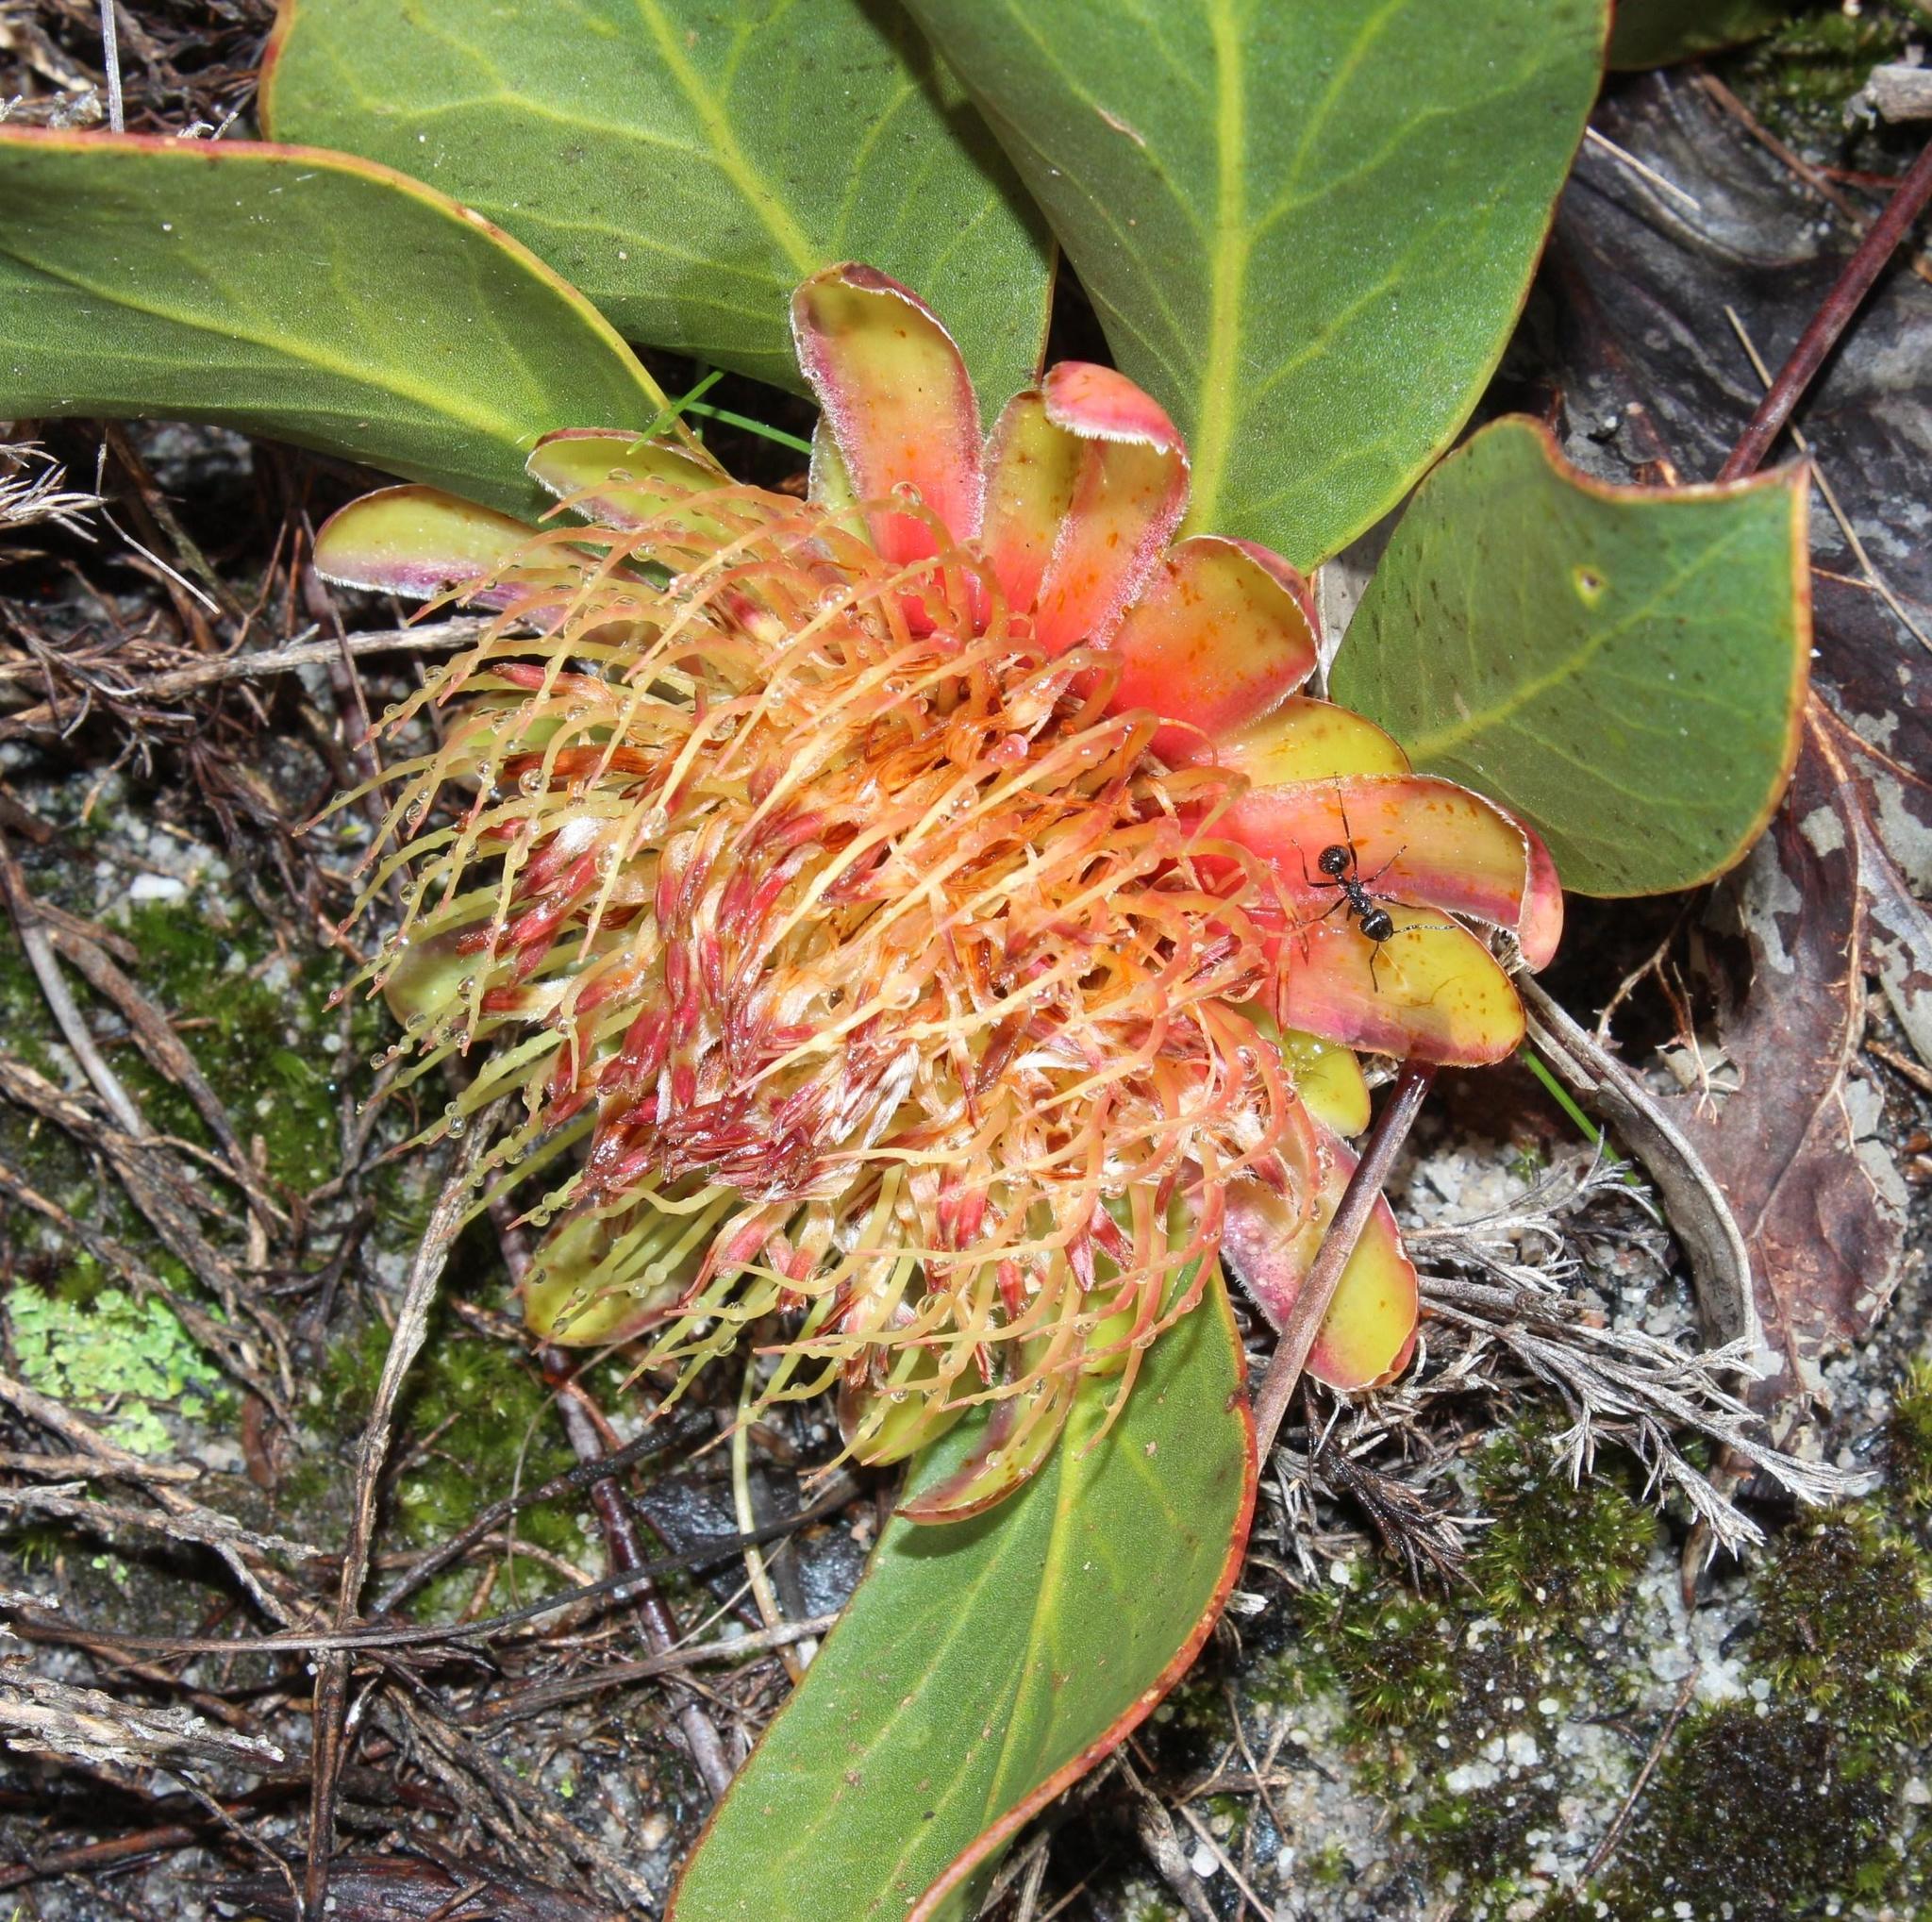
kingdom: Plantae
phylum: Tracheophyta
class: Magnoliopsida
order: Proteales
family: Proteaceae
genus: Protea
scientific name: Protea acaulos
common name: Common ground sugarbush
